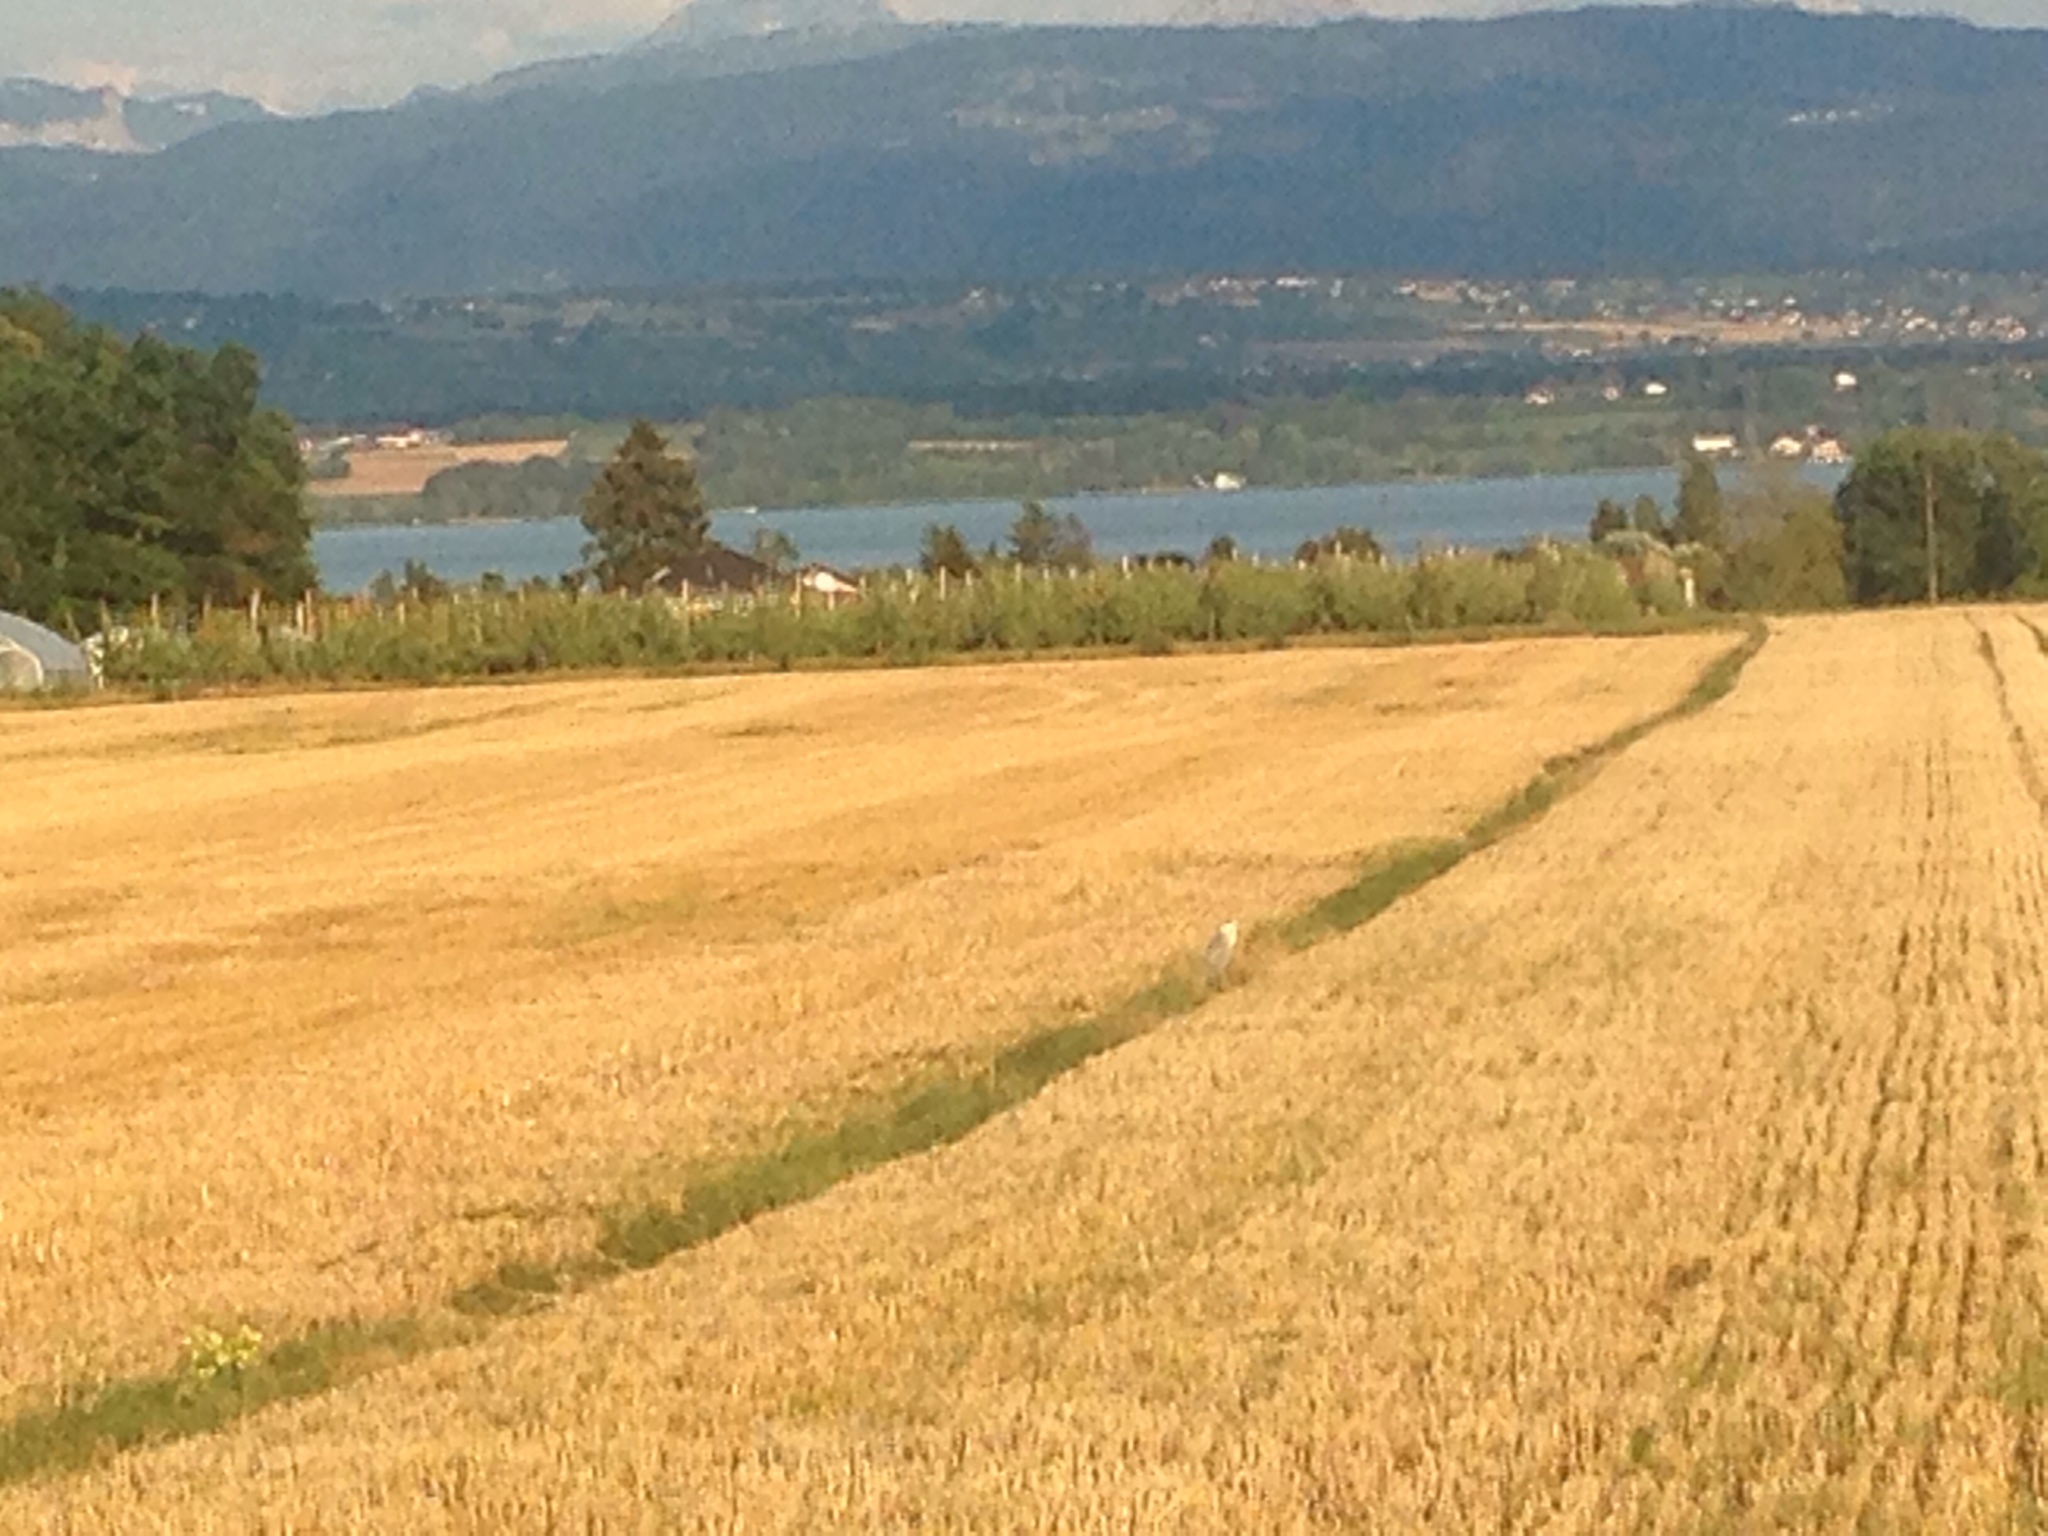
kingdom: Animalia
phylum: Chordata
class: Aves
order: Pelecaniformes
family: Ardeidae
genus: Ardea
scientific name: Ardea cinerea
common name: Grey heron
